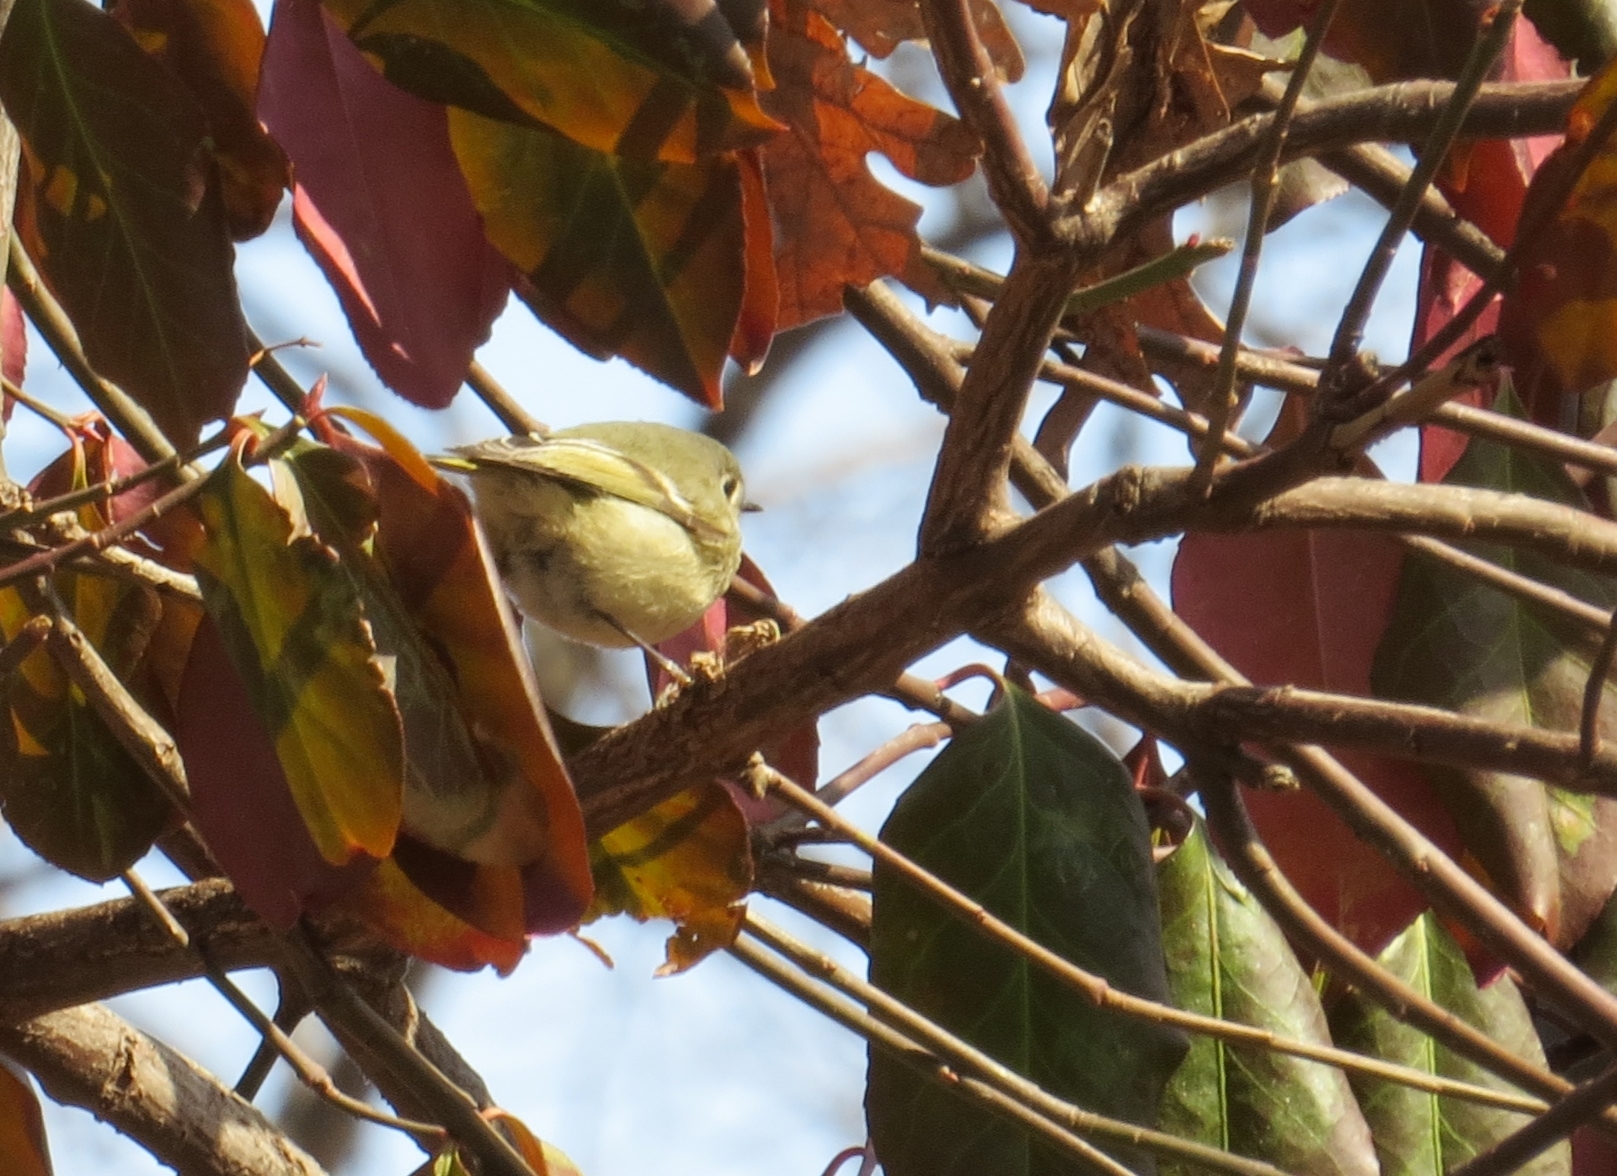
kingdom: Animalia
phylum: Chordata
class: Aves
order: Passeriformes
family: Regulidae
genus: Regulus
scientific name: Regulus calendula
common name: Ruby-crowned kinglet
